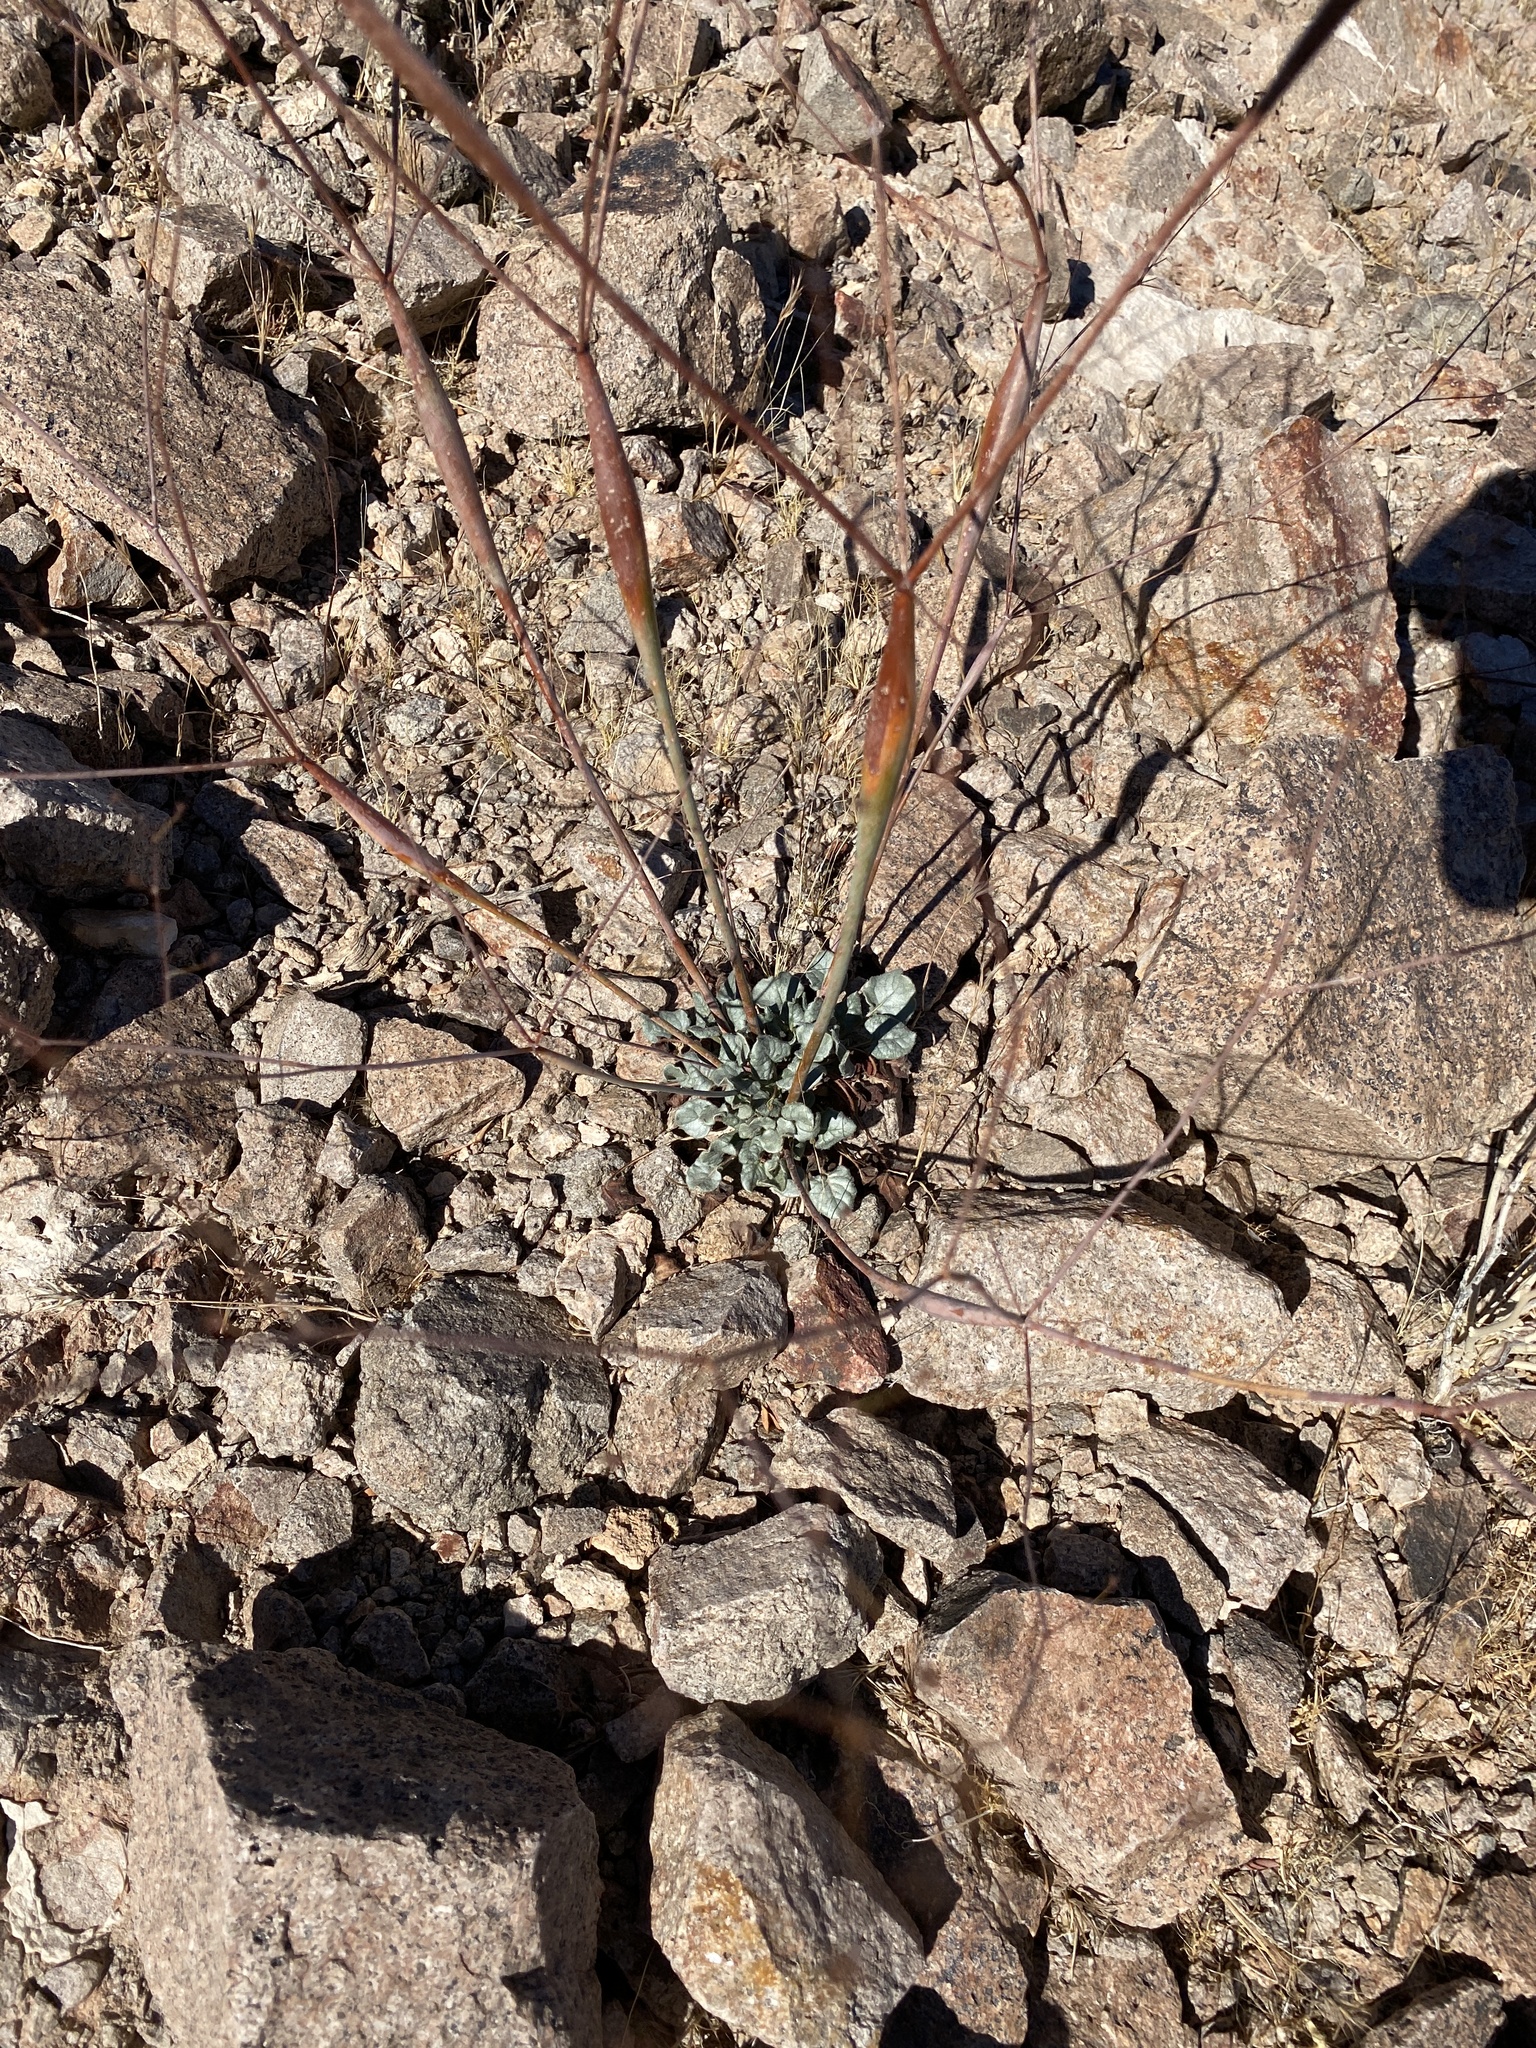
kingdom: Plantae
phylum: Tracheophyta
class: Magnoliopsida
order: Caryophyllales
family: Polygonaceae
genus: Eriogonum
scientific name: Eriogonum inflatum
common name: Desert trumpet
